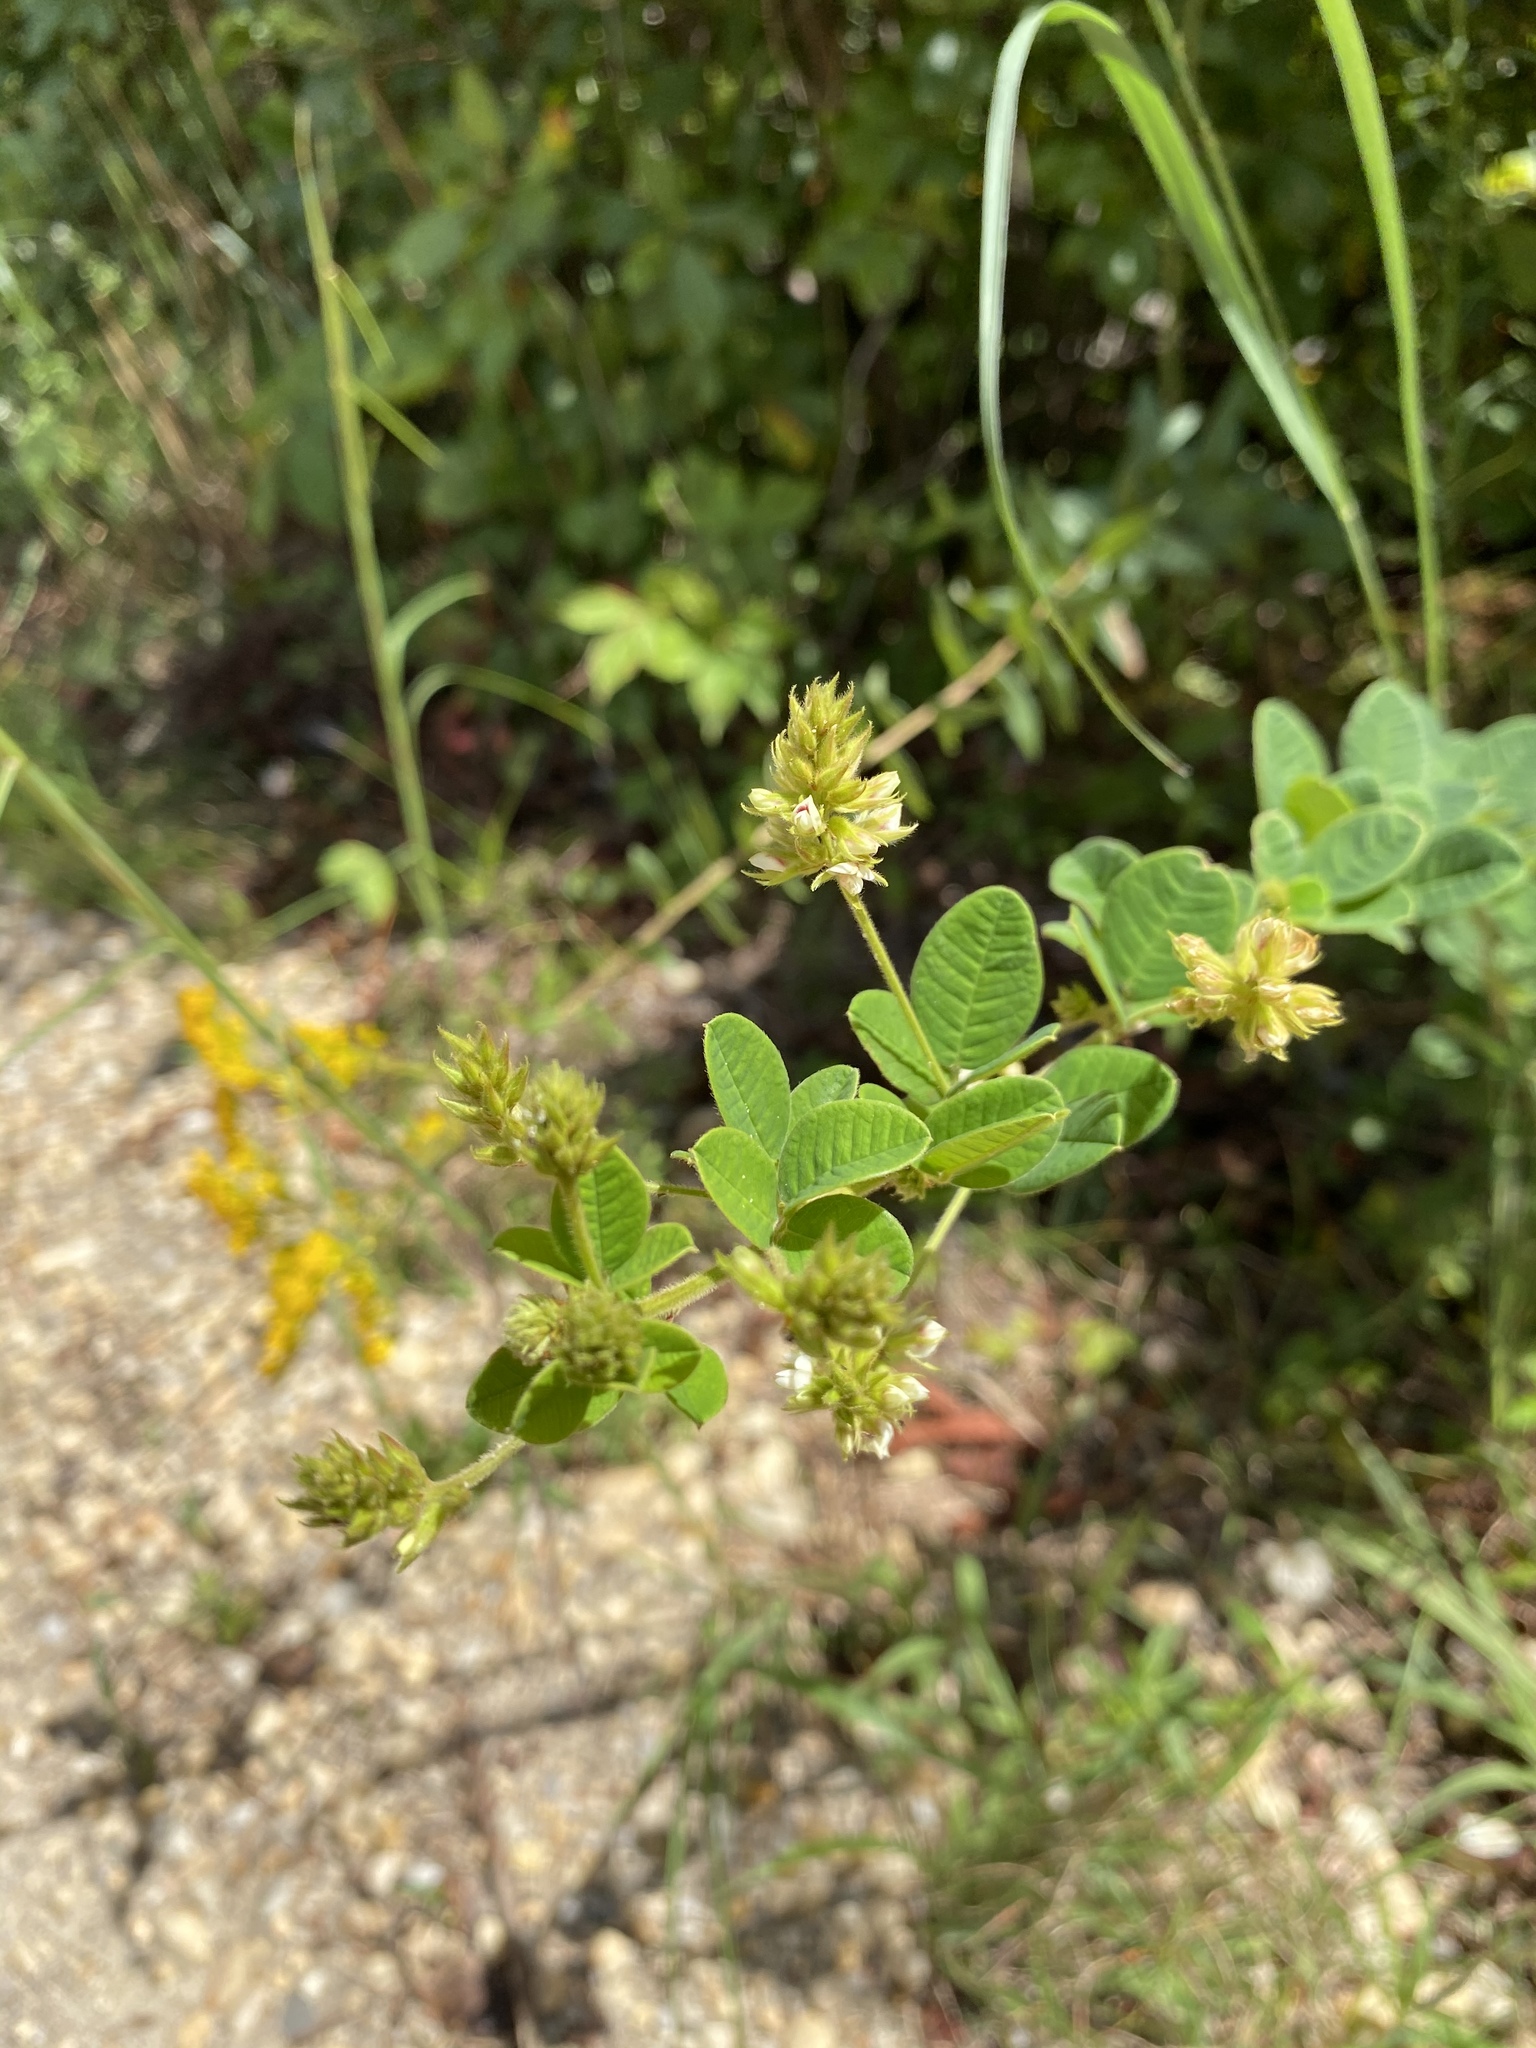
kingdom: Plantae
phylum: Tracheophyta
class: Magnoliopsida
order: Fabales
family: Fabaceae
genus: Lespedeza
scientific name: Lespedeza hirta
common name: Hairy lespedeza
